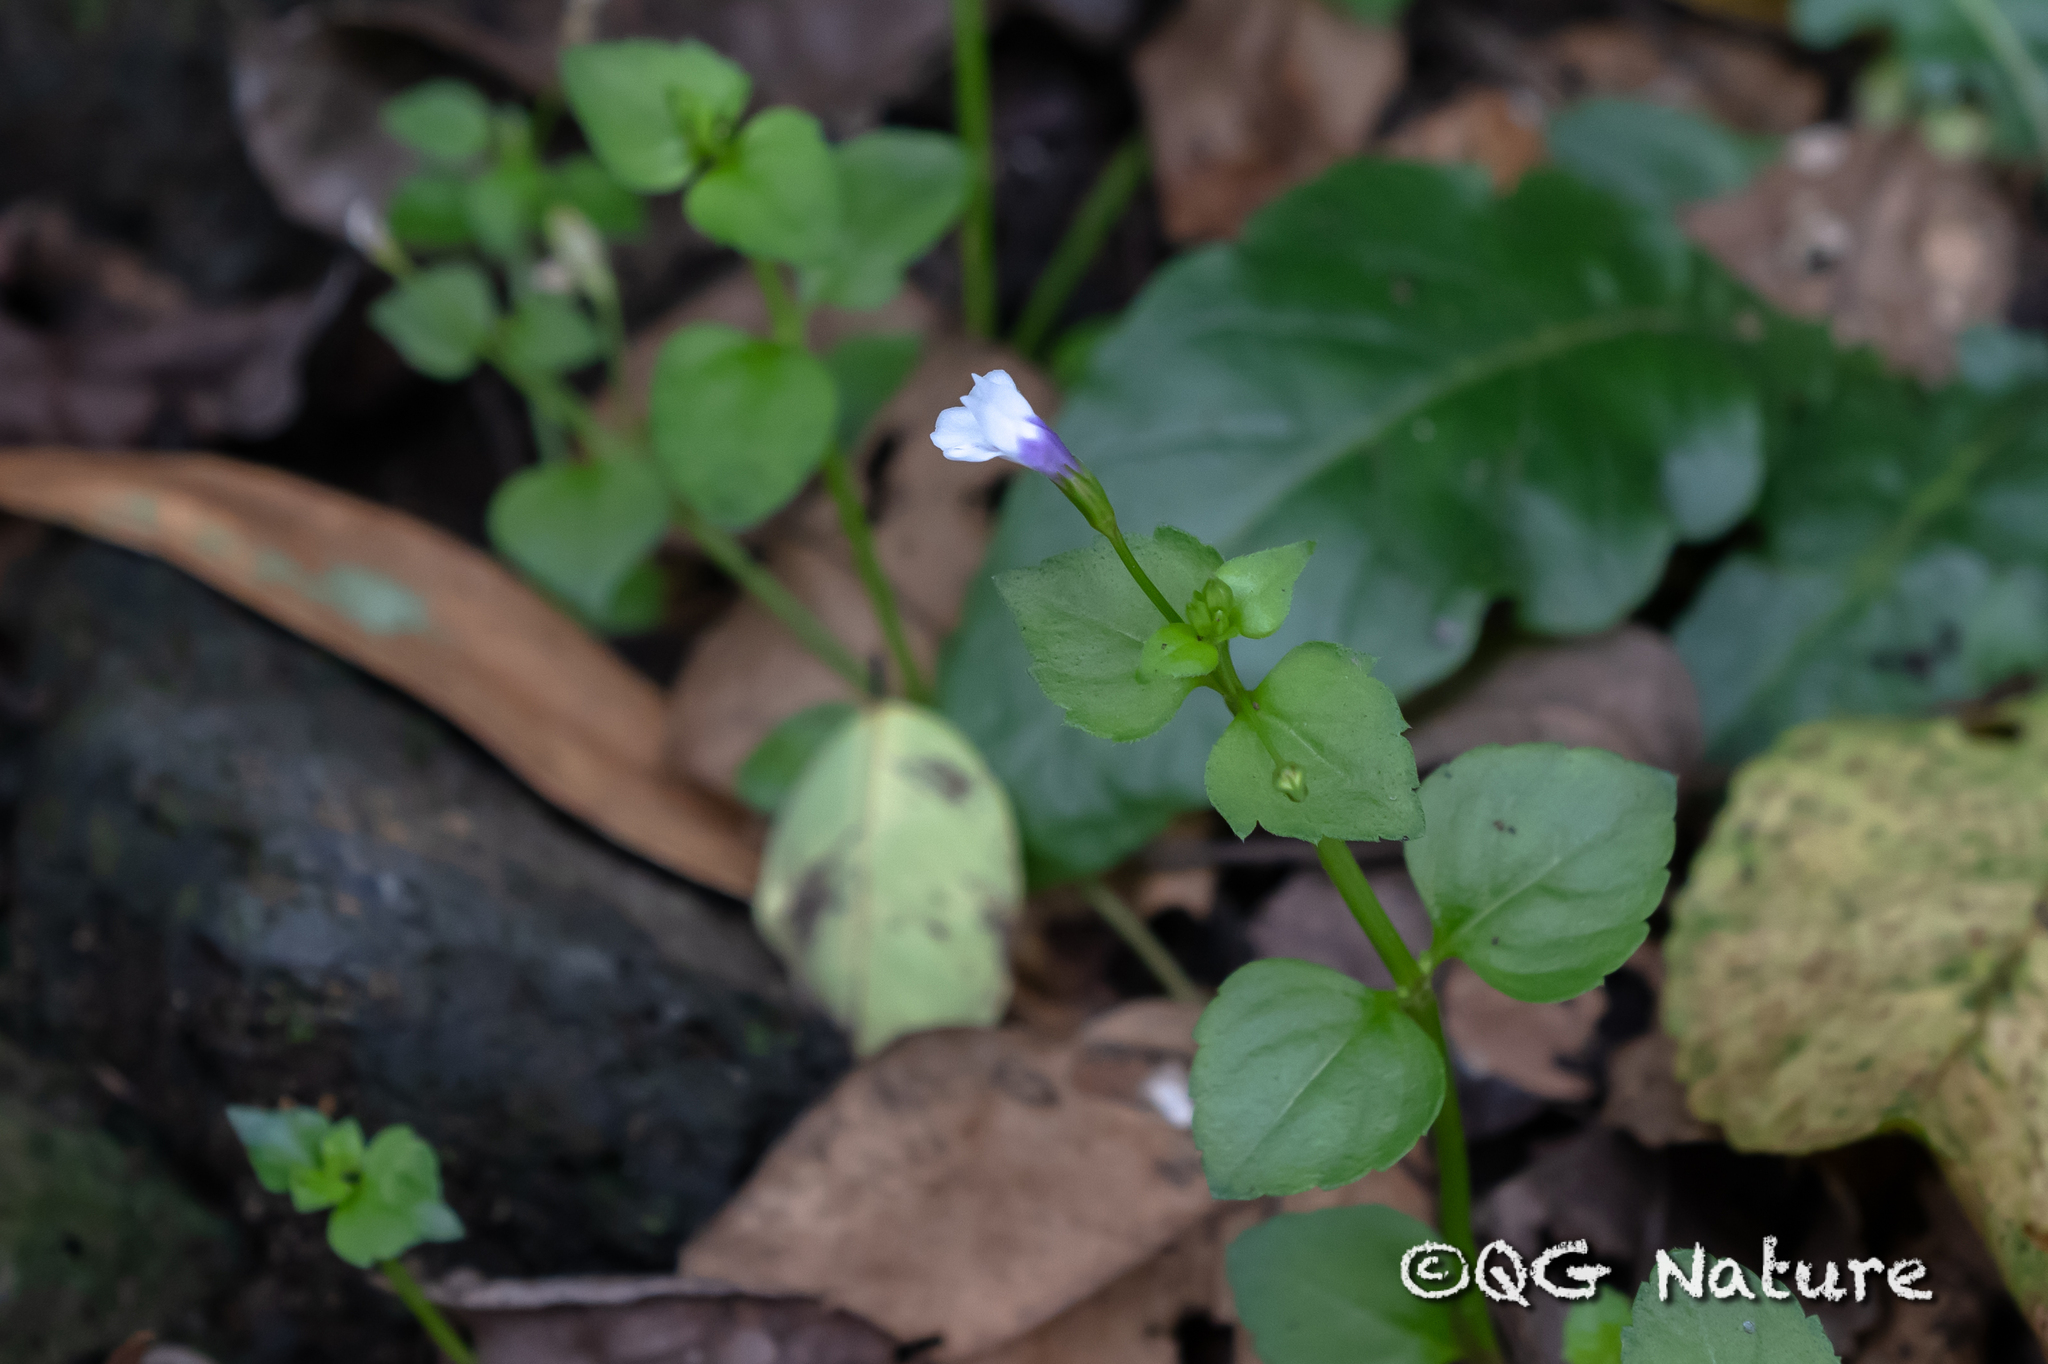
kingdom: Plantae
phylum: Tracheophyta
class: Magnoliopsida
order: Lamiales
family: Linderniaceae
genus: Torenia
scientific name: Torenia crustacea
